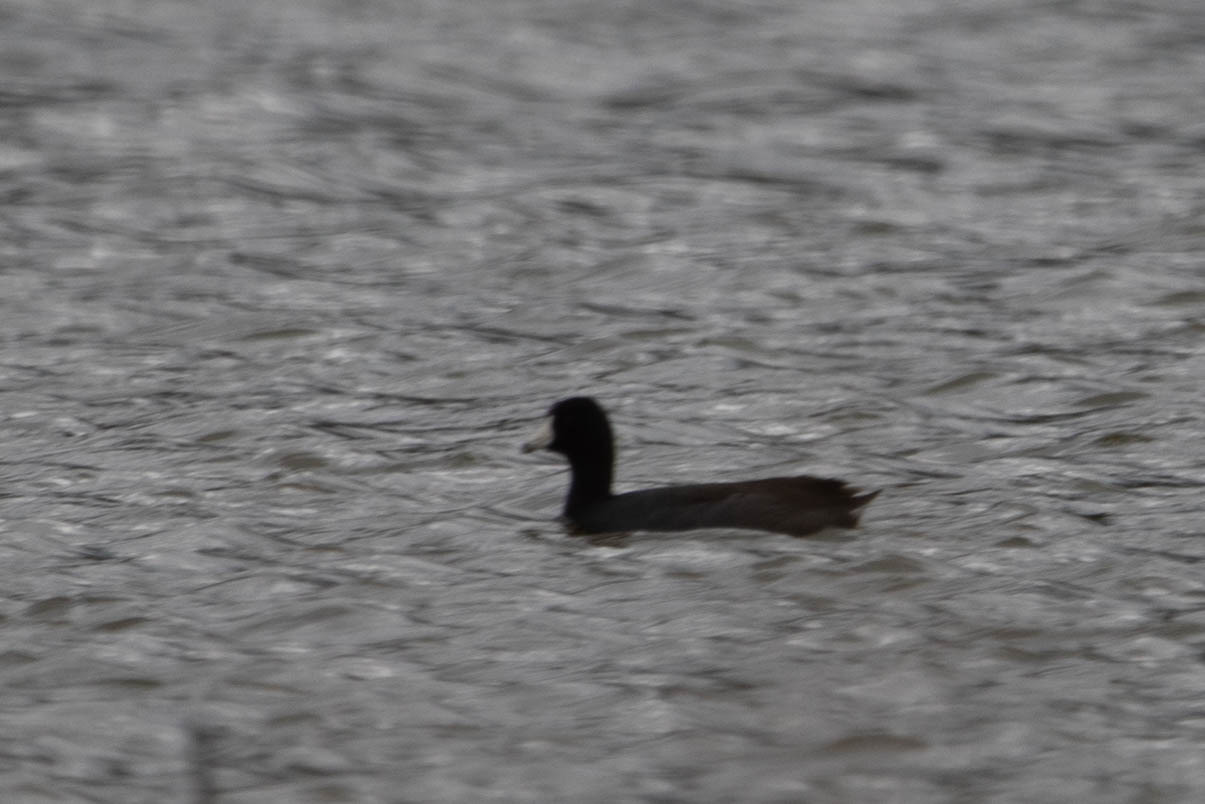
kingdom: Animalia
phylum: Chordata
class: Aves
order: Gruiformes
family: Rallidae
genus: Fulica
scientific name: Fulica americana
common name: American coot
